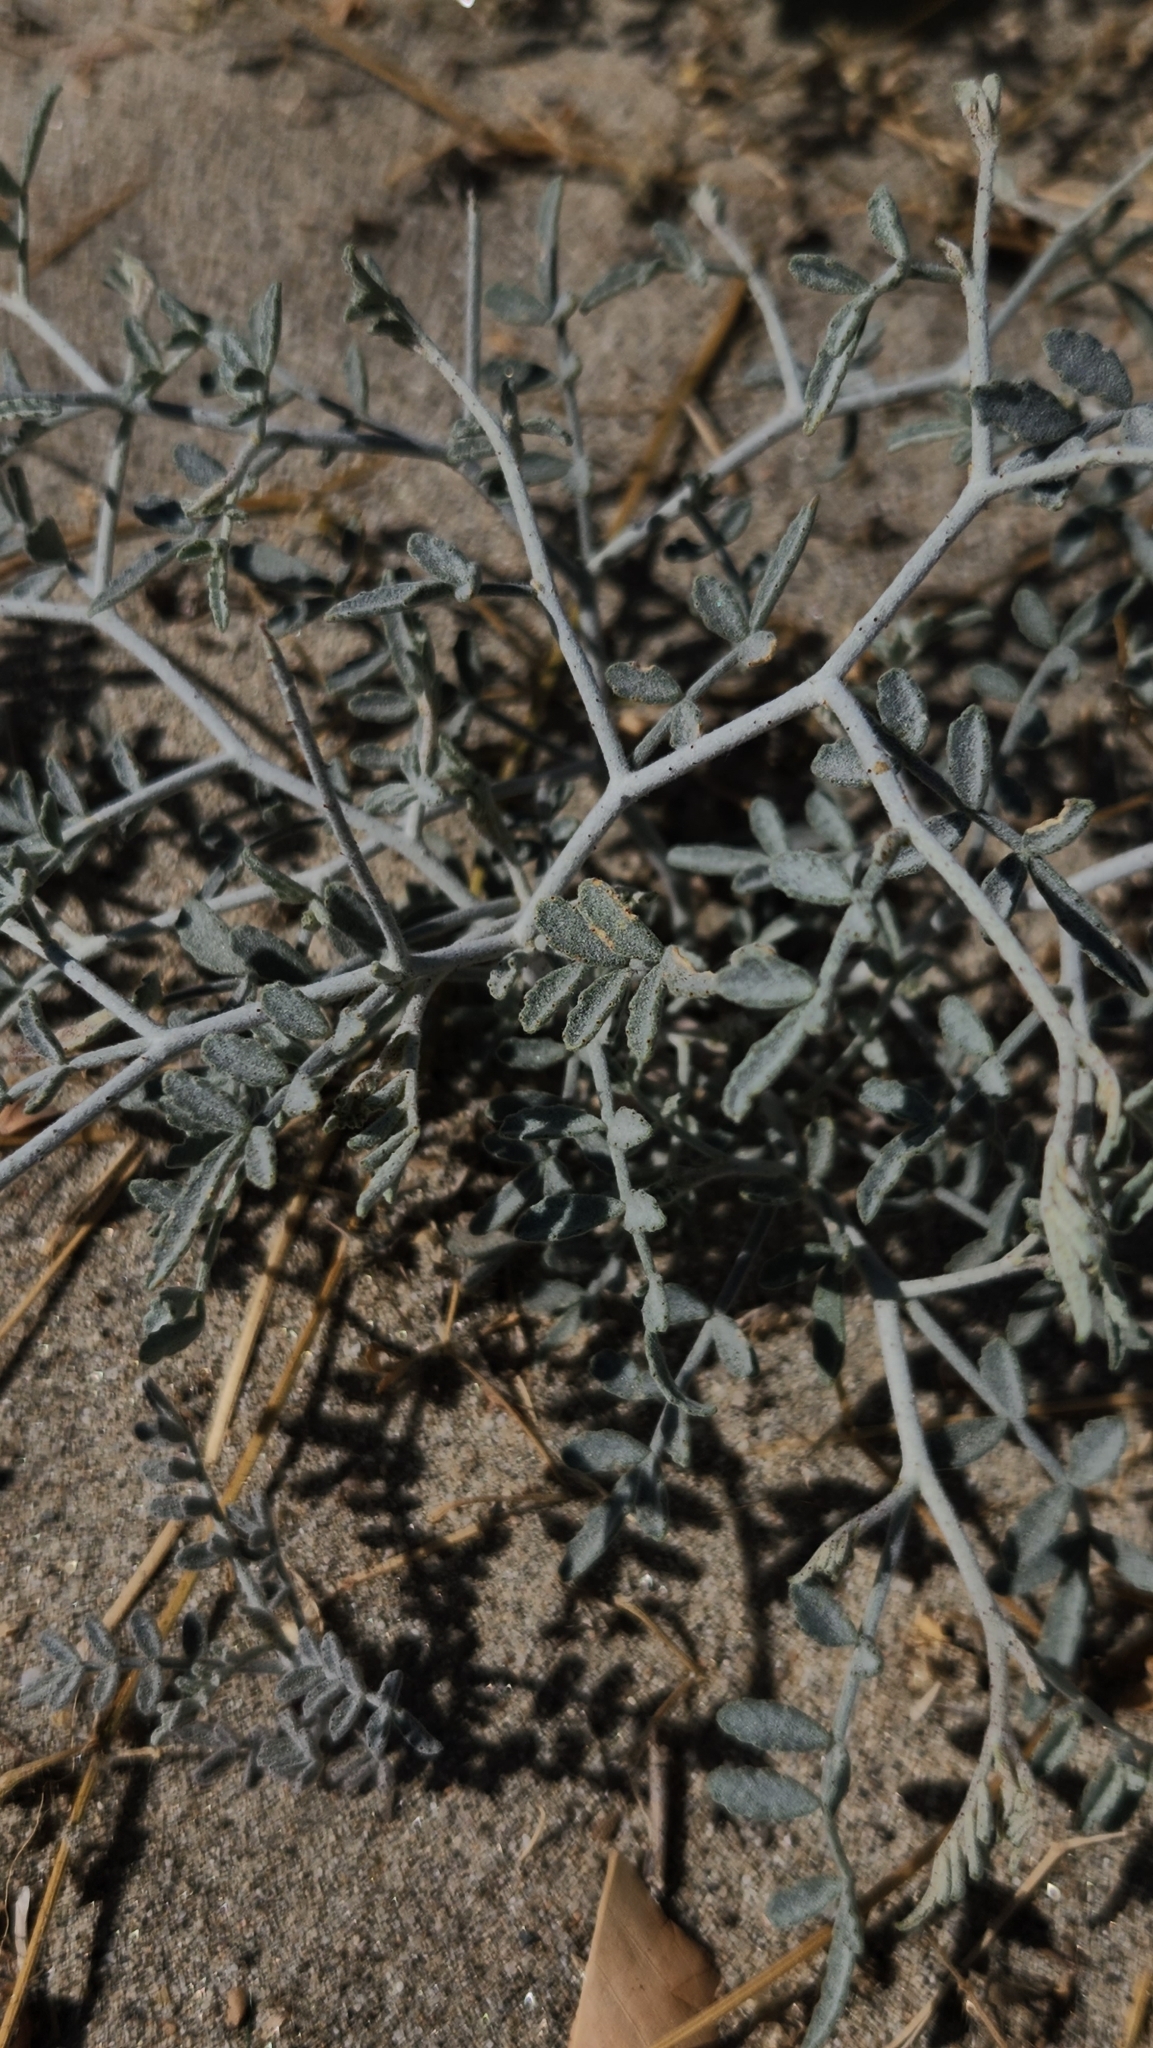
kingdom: Plantae
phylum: Tracheophyta
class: Magnoliopsida
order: Fabales
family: Fabaceae
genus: Psorothamnus
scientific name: Psorothamnus emoryi
